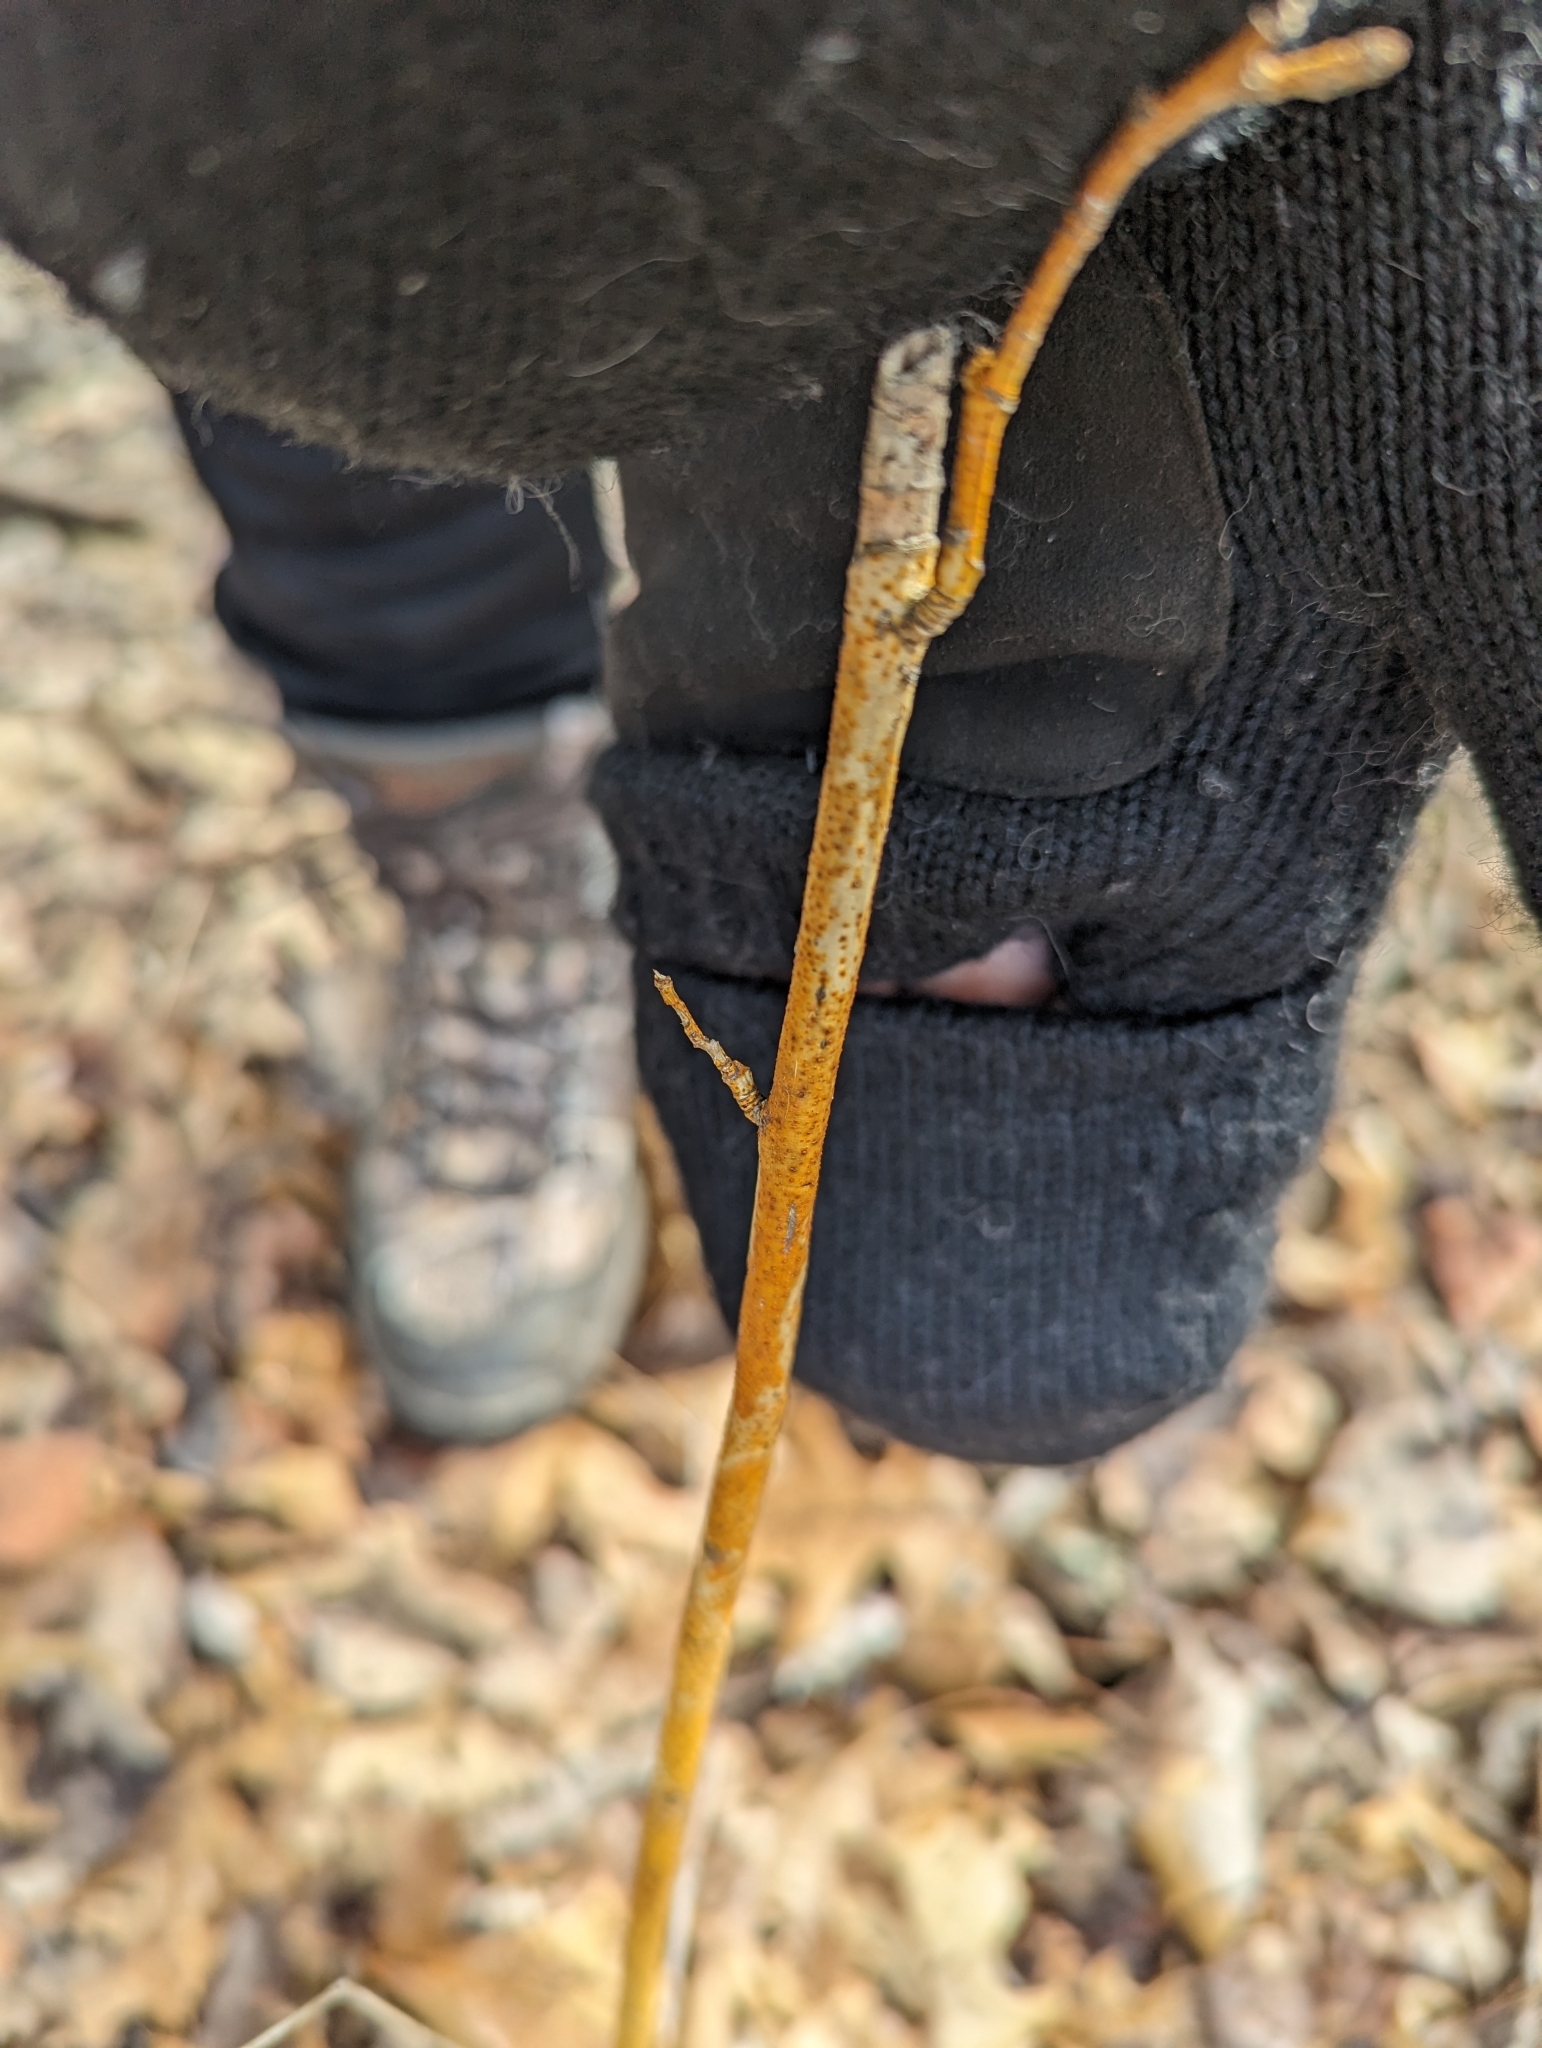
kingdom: Fungi
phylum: Ascomycota
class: Sordariomycetes
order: Diaporthales
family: Cryphonectriaceae
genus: Aurantioporthe
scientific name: Aurantioporthe corni
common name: Dogwood golden canker
